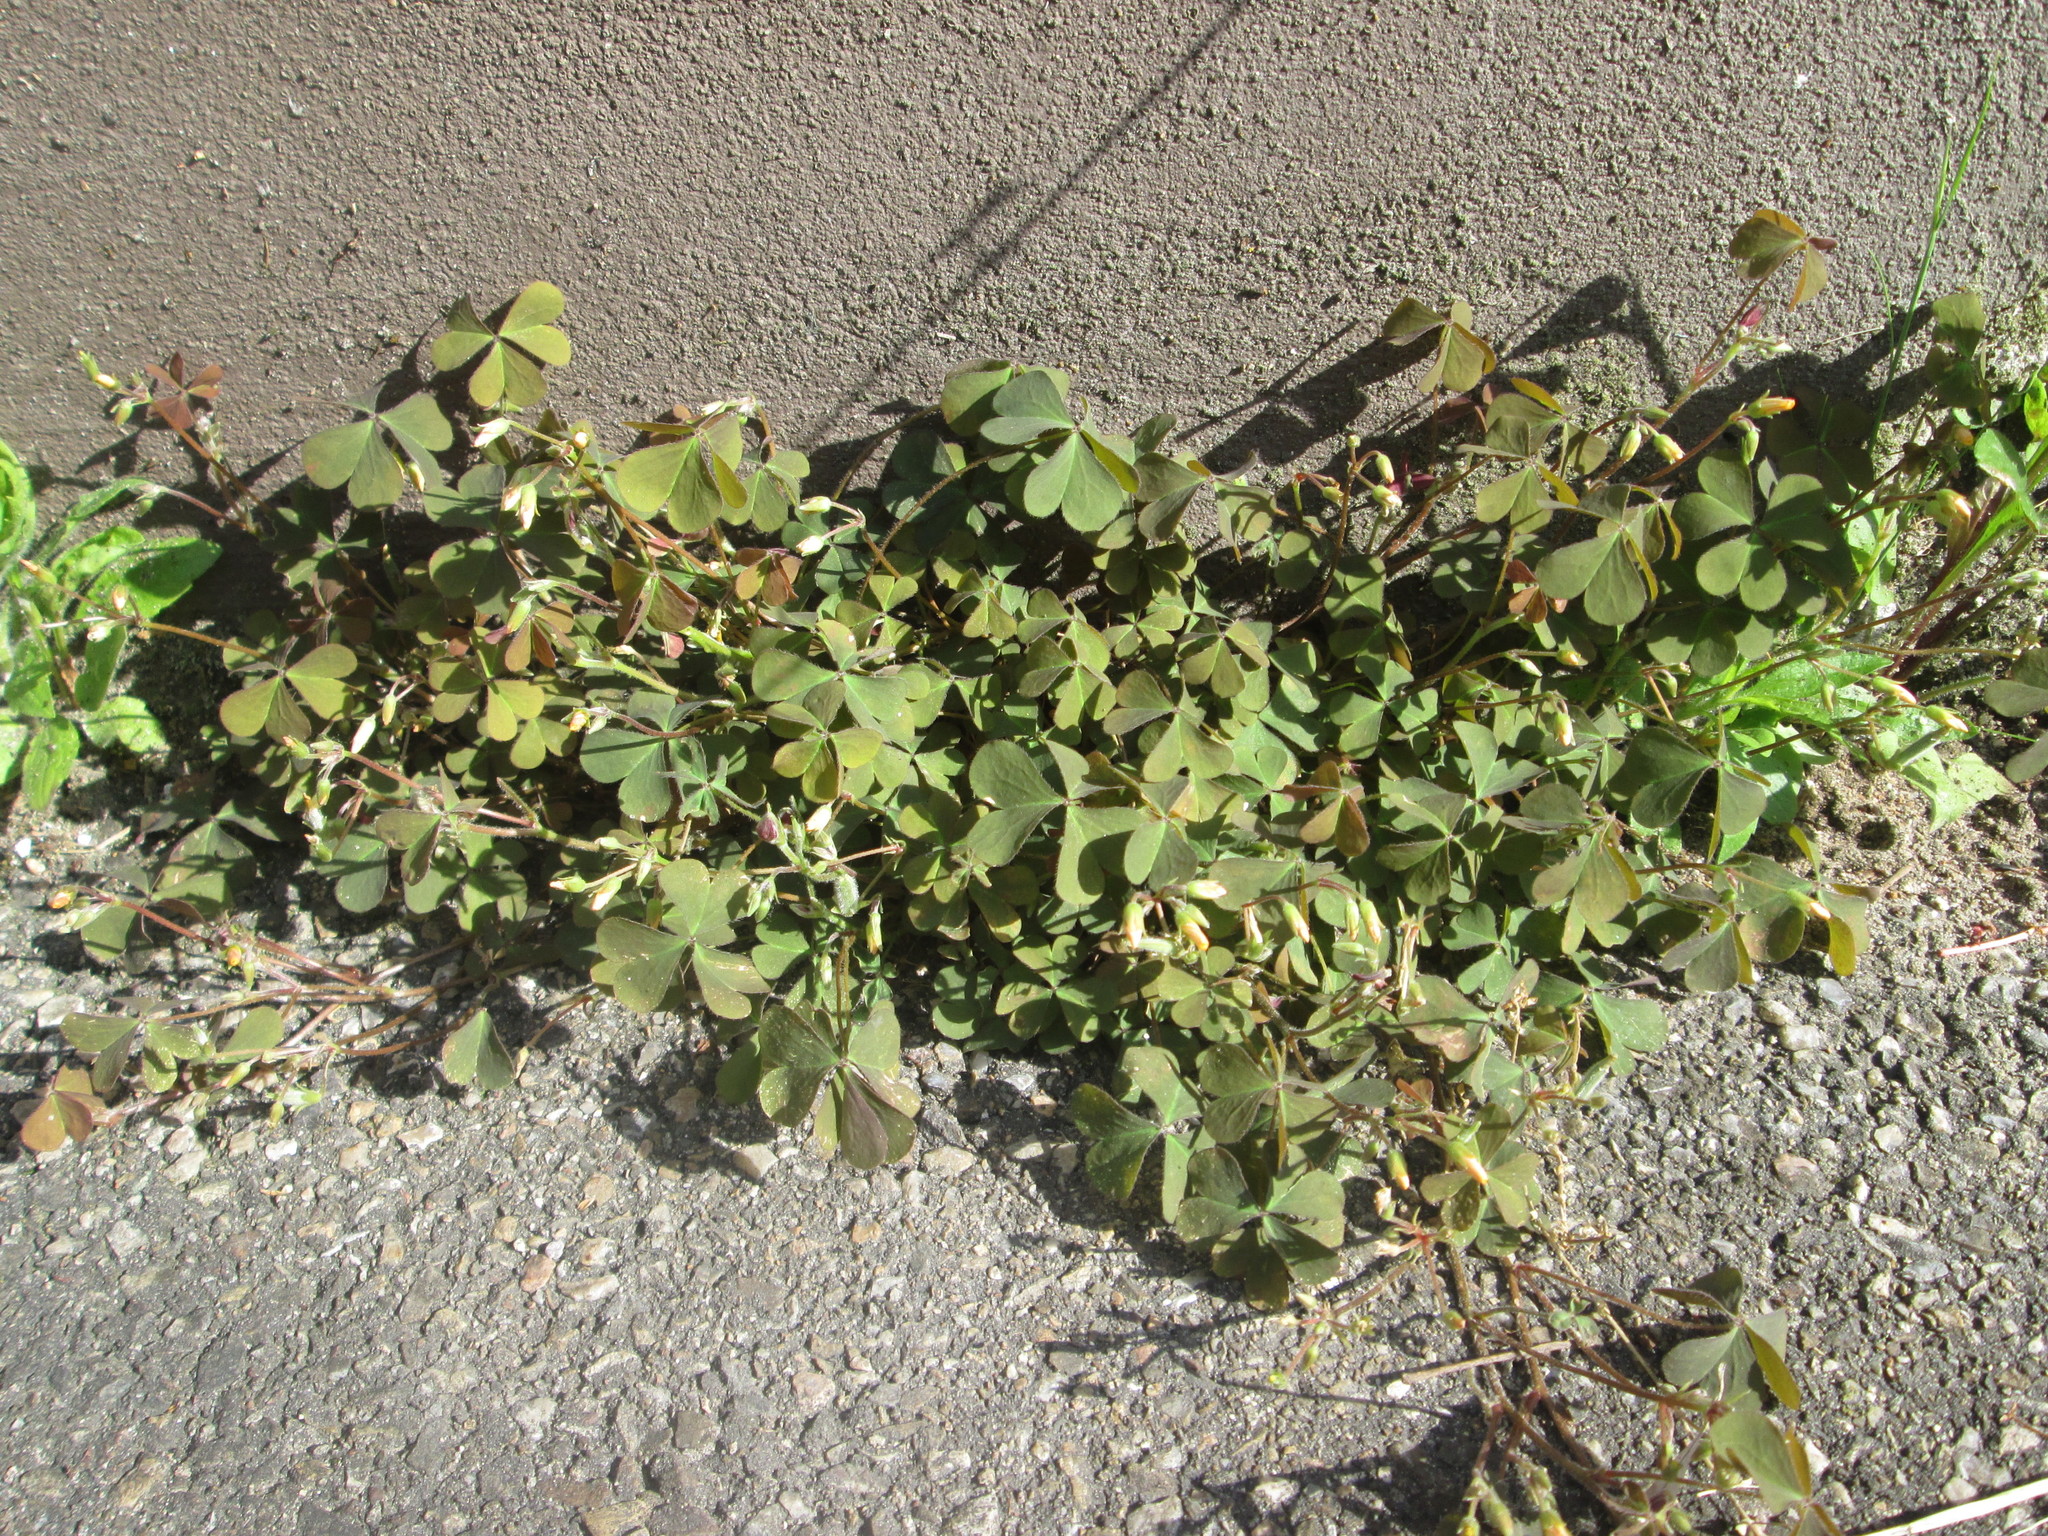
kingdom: Plantae
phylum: Tracheophyta
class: Magnoliopsida
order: Oxalidales
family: Oxalidaceae
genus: Oxalis
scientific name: Oxalis corniculata
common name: Procumbent yellow-sorrel
